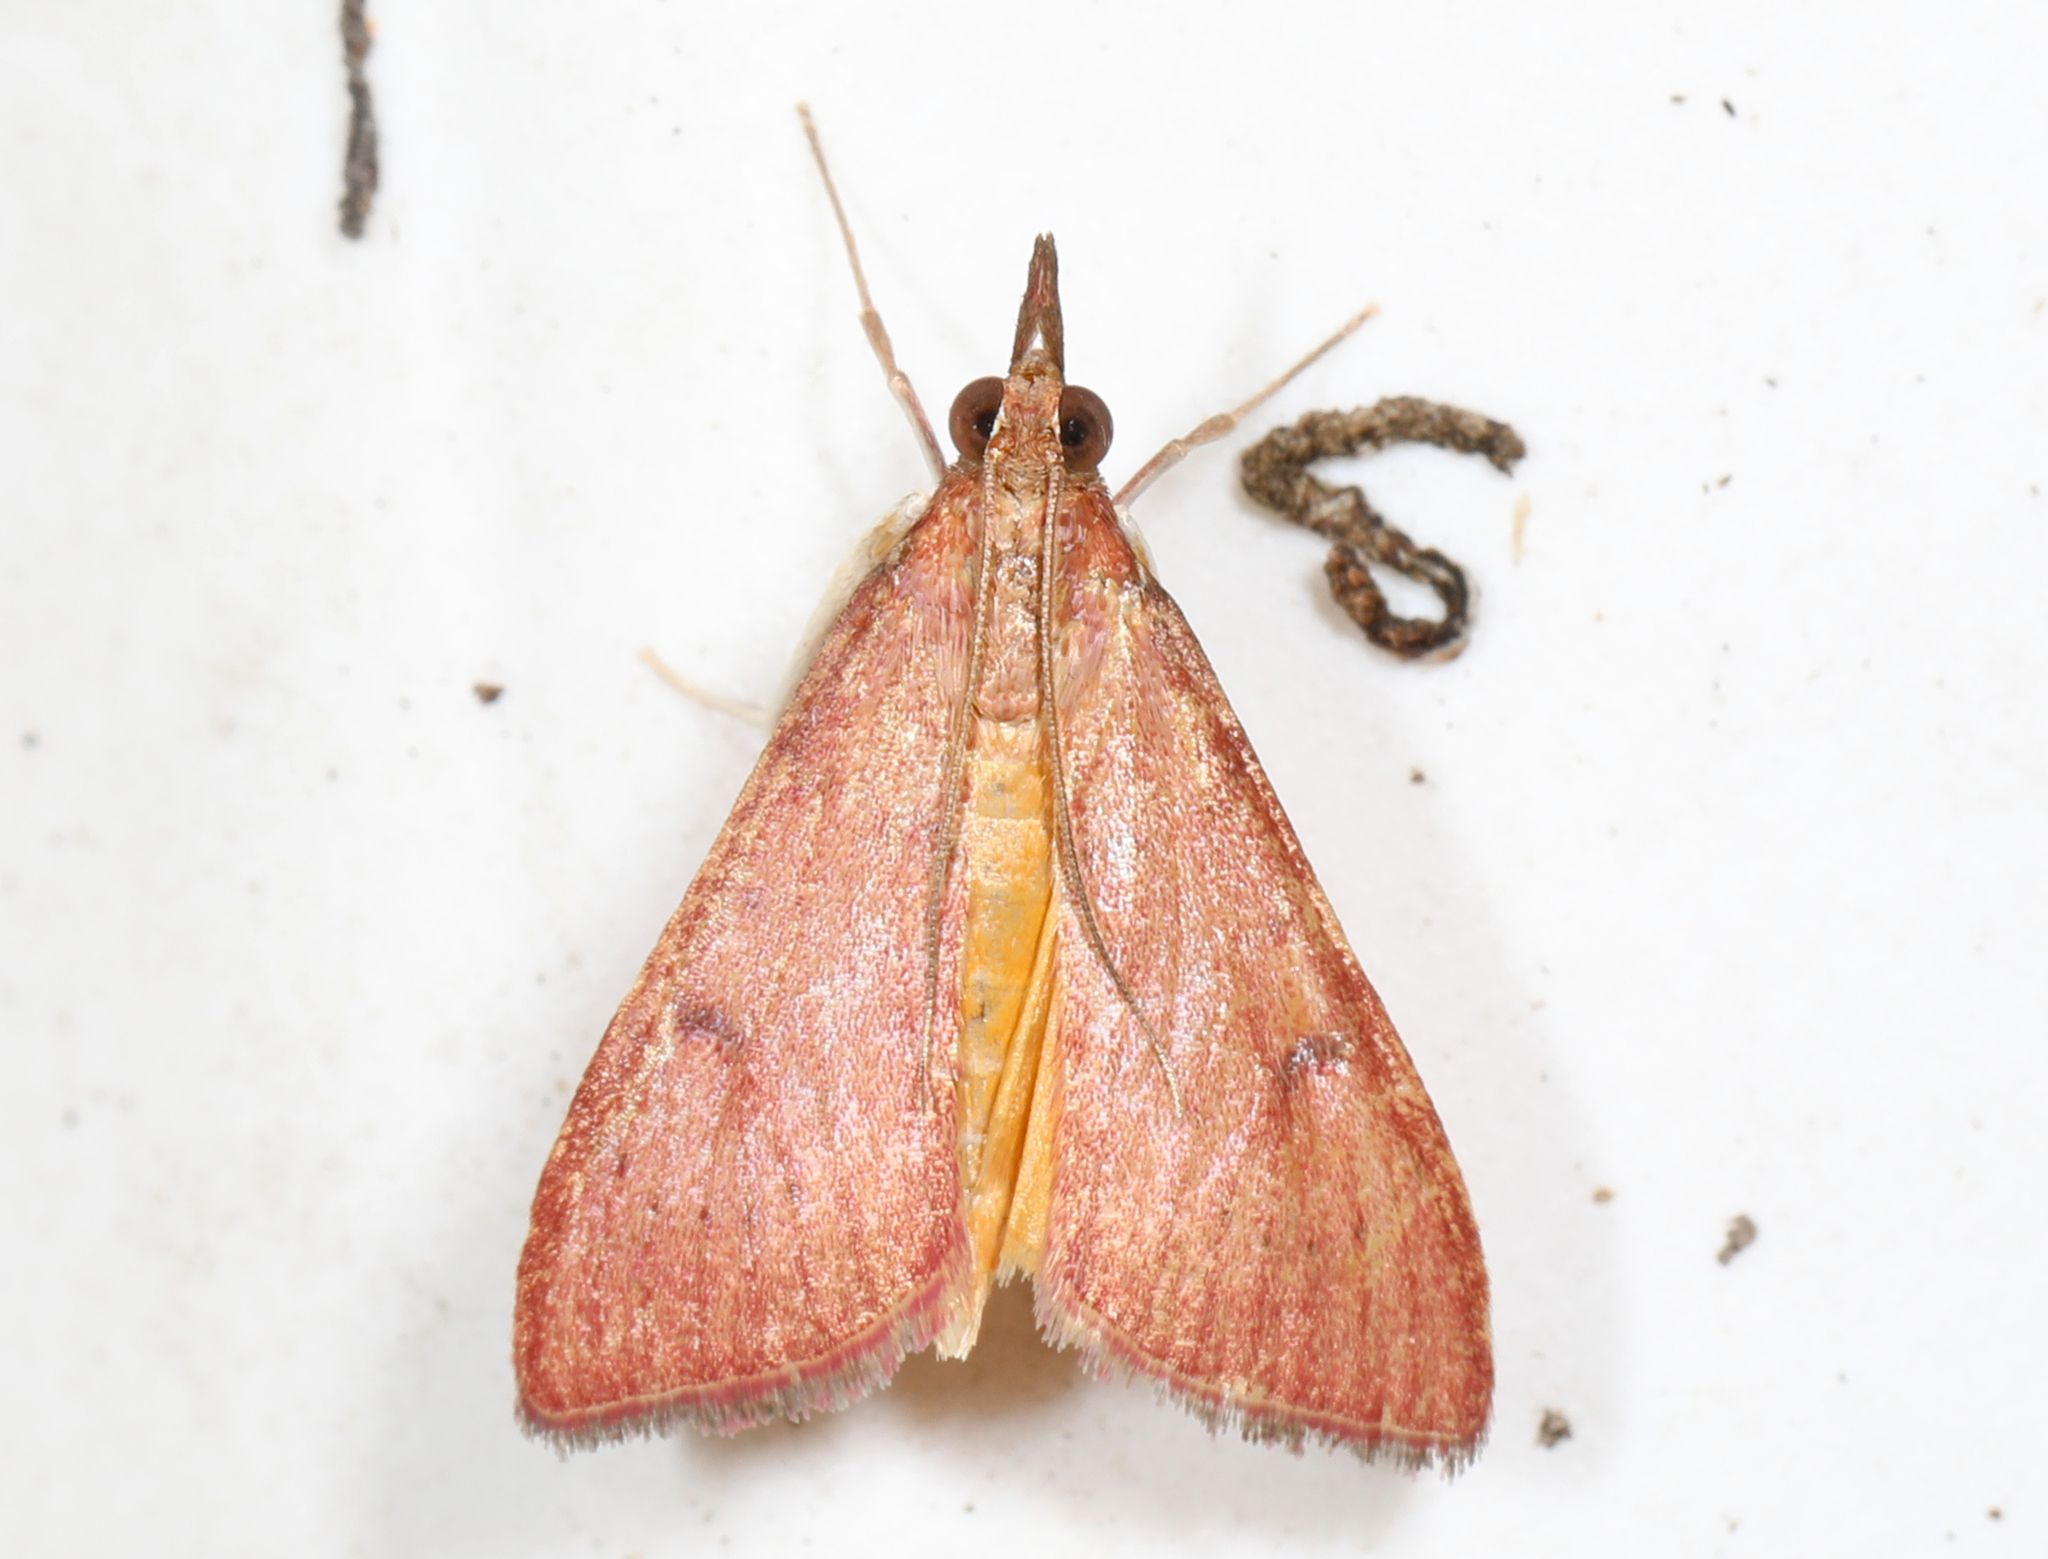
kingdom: Animalia
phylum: Arthropoda
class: Insecta
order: Lepidoptera
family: Crambidae
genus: Uresiphita
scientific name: Uresiphita reversalis
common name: Genista broom moth
